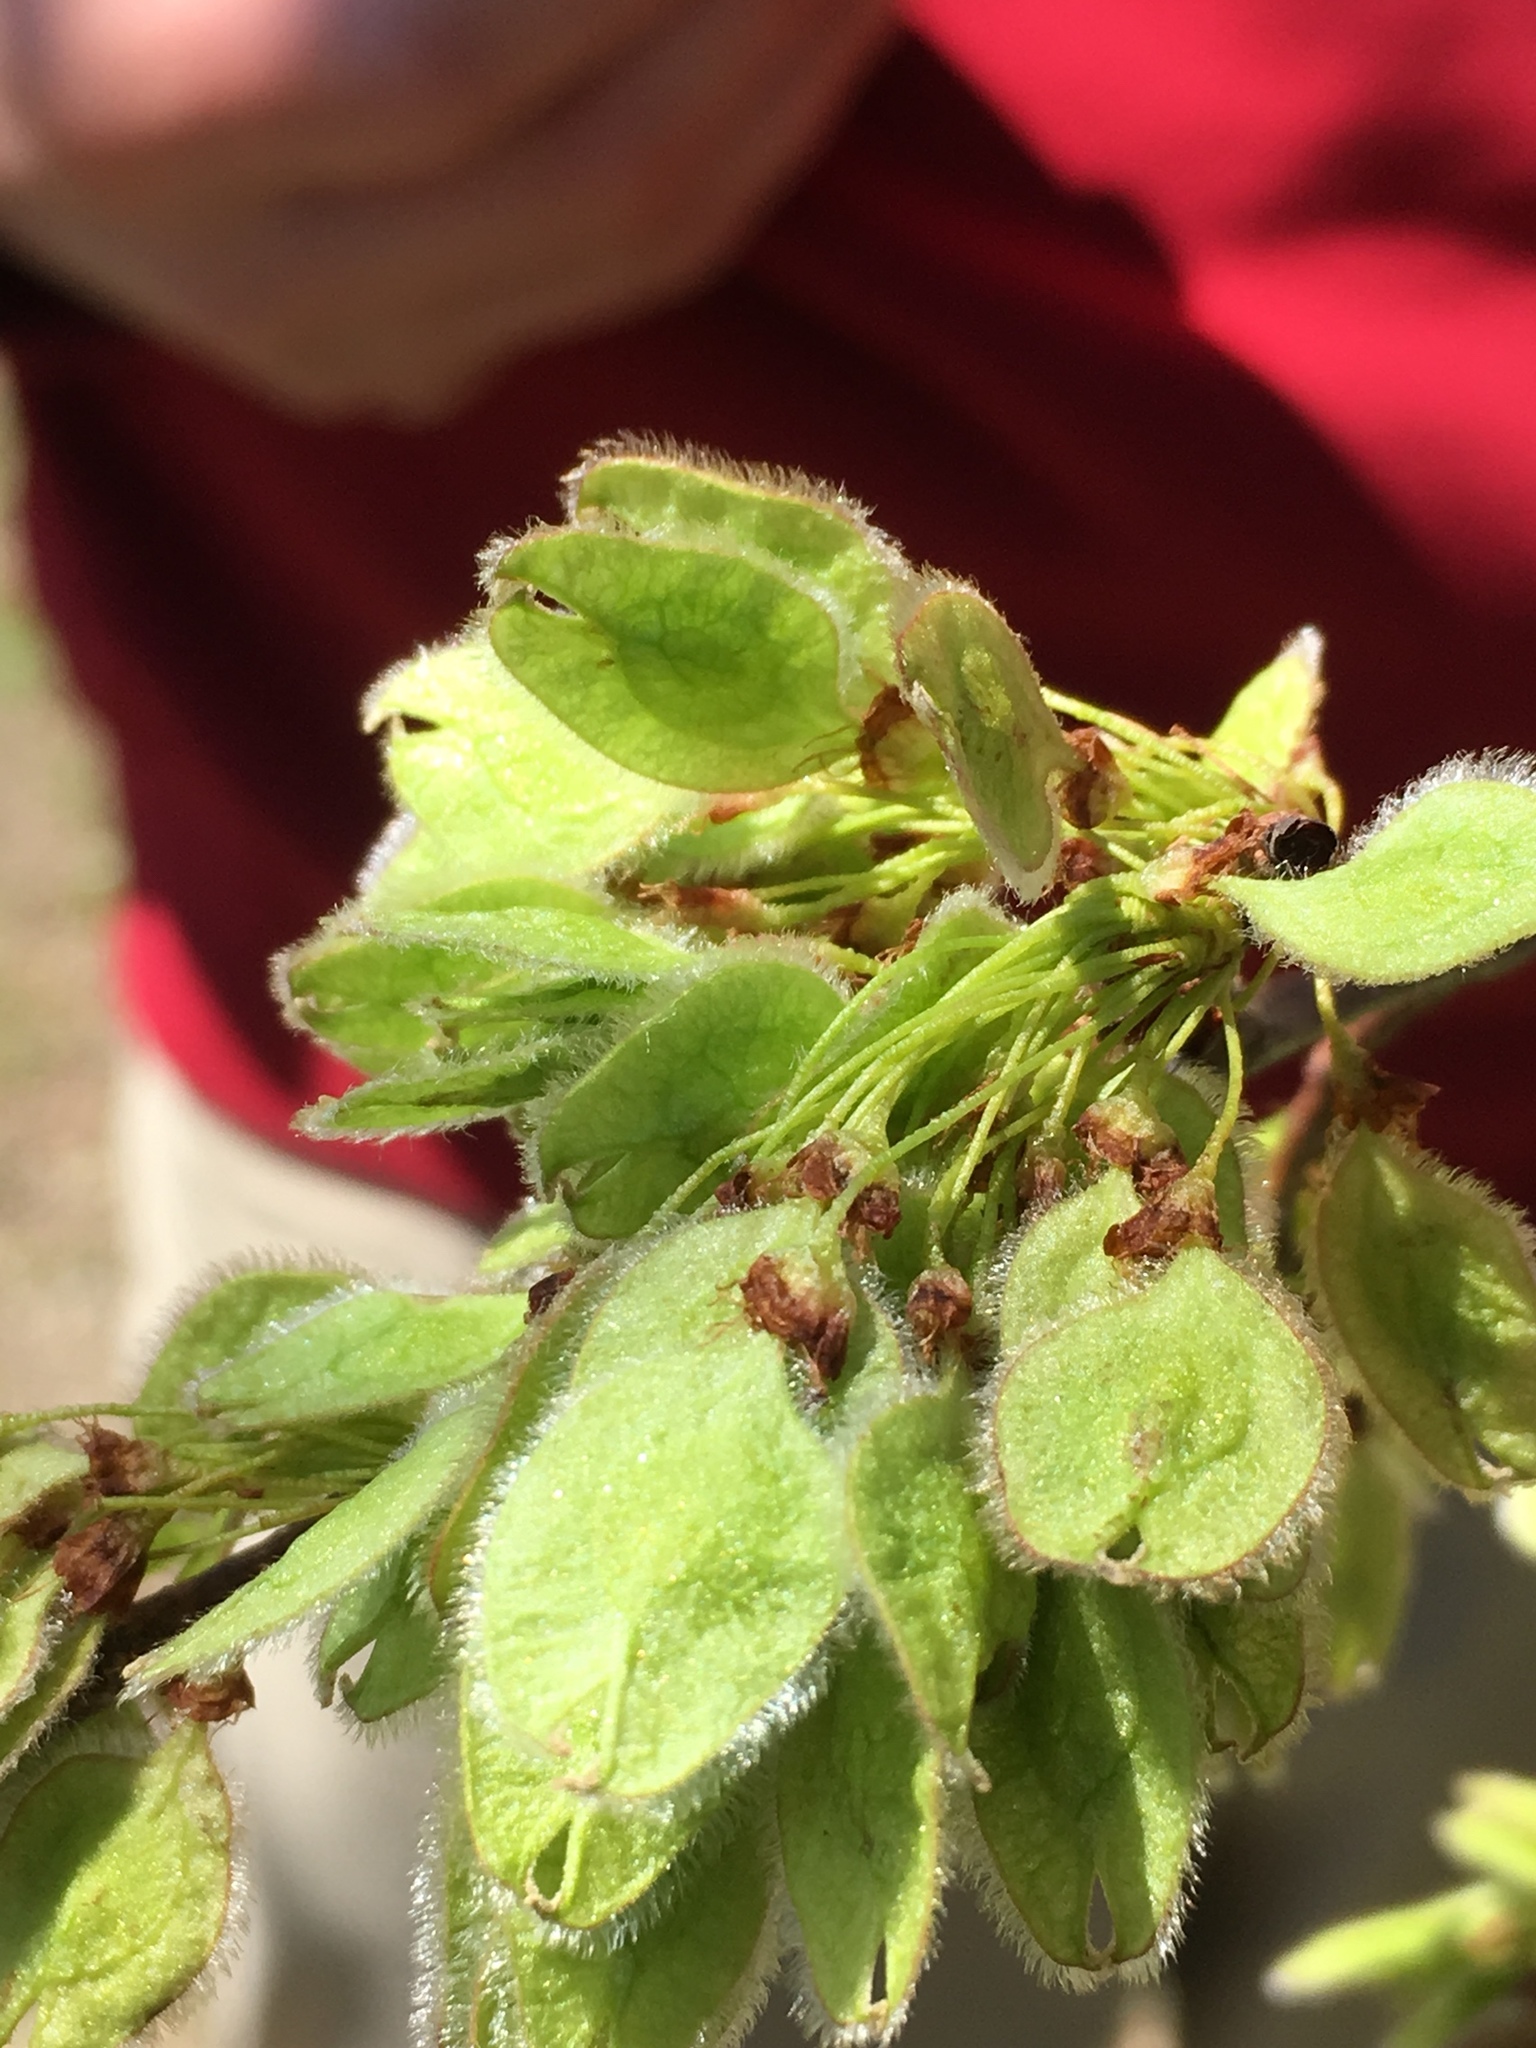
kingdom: Plantae
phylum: Tracheophyta
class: Magnoliopsida
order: Rosales
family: Ulmaceae
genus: Ulmus
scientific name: Ulmus americana
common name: American elm
